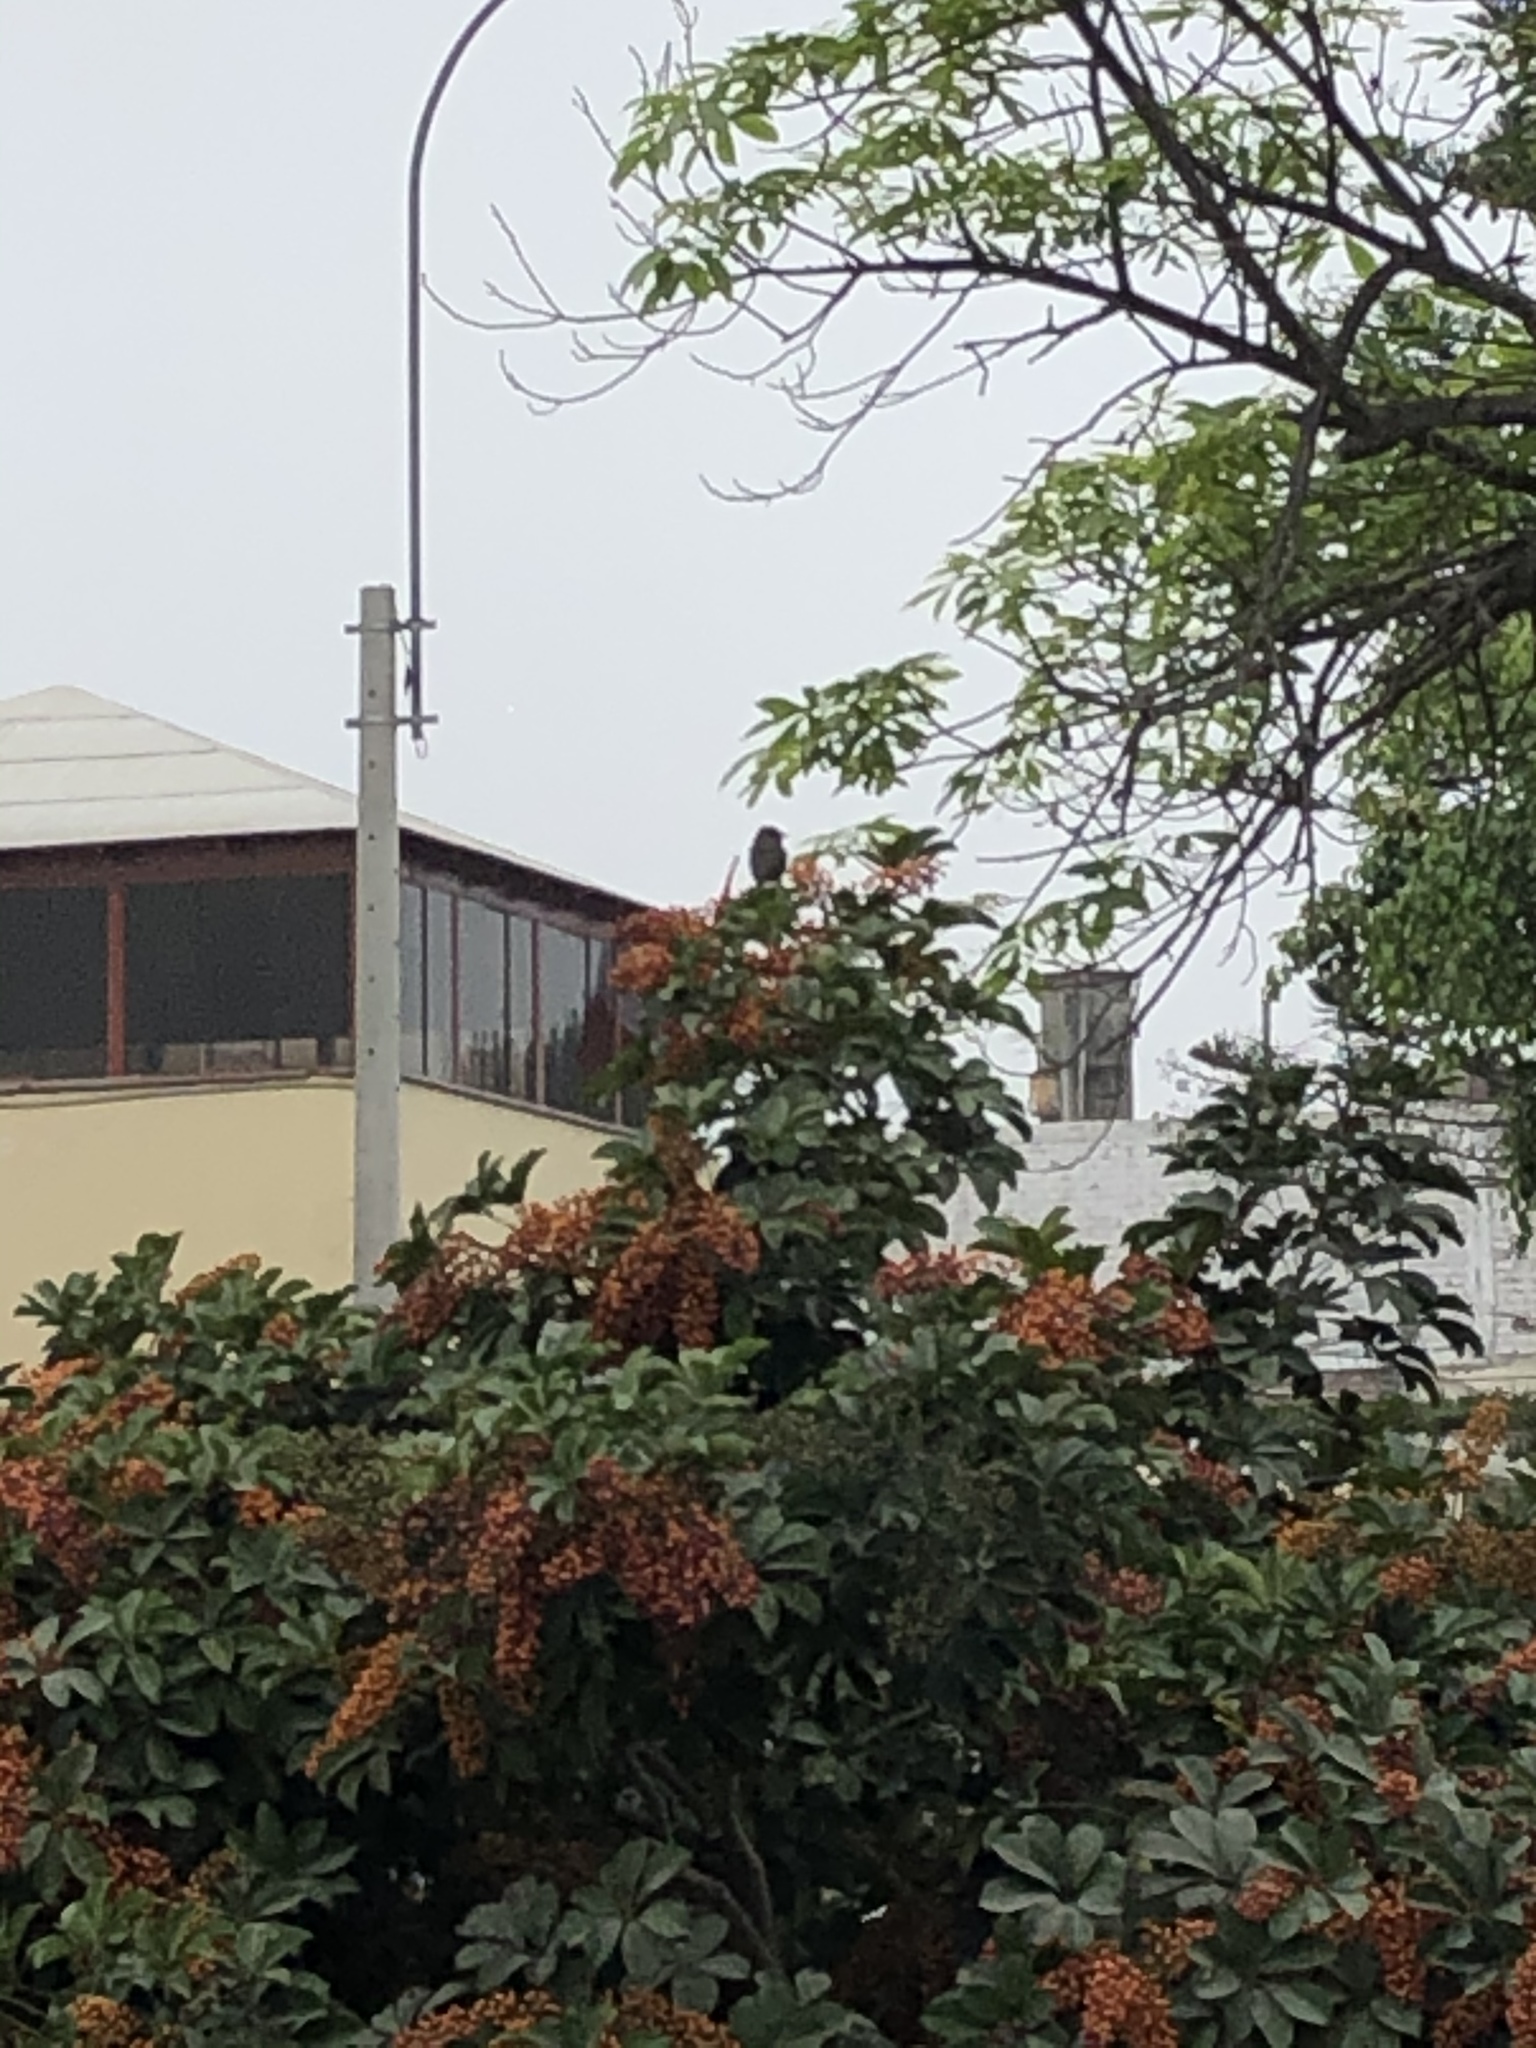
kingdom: Animalia
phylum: Chordata
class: Aves
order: Passeriformes
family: Tyrannidae
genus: Pyrocephalus
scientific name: Pyrocephalus rubinus
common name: Vermilion flycatcher
